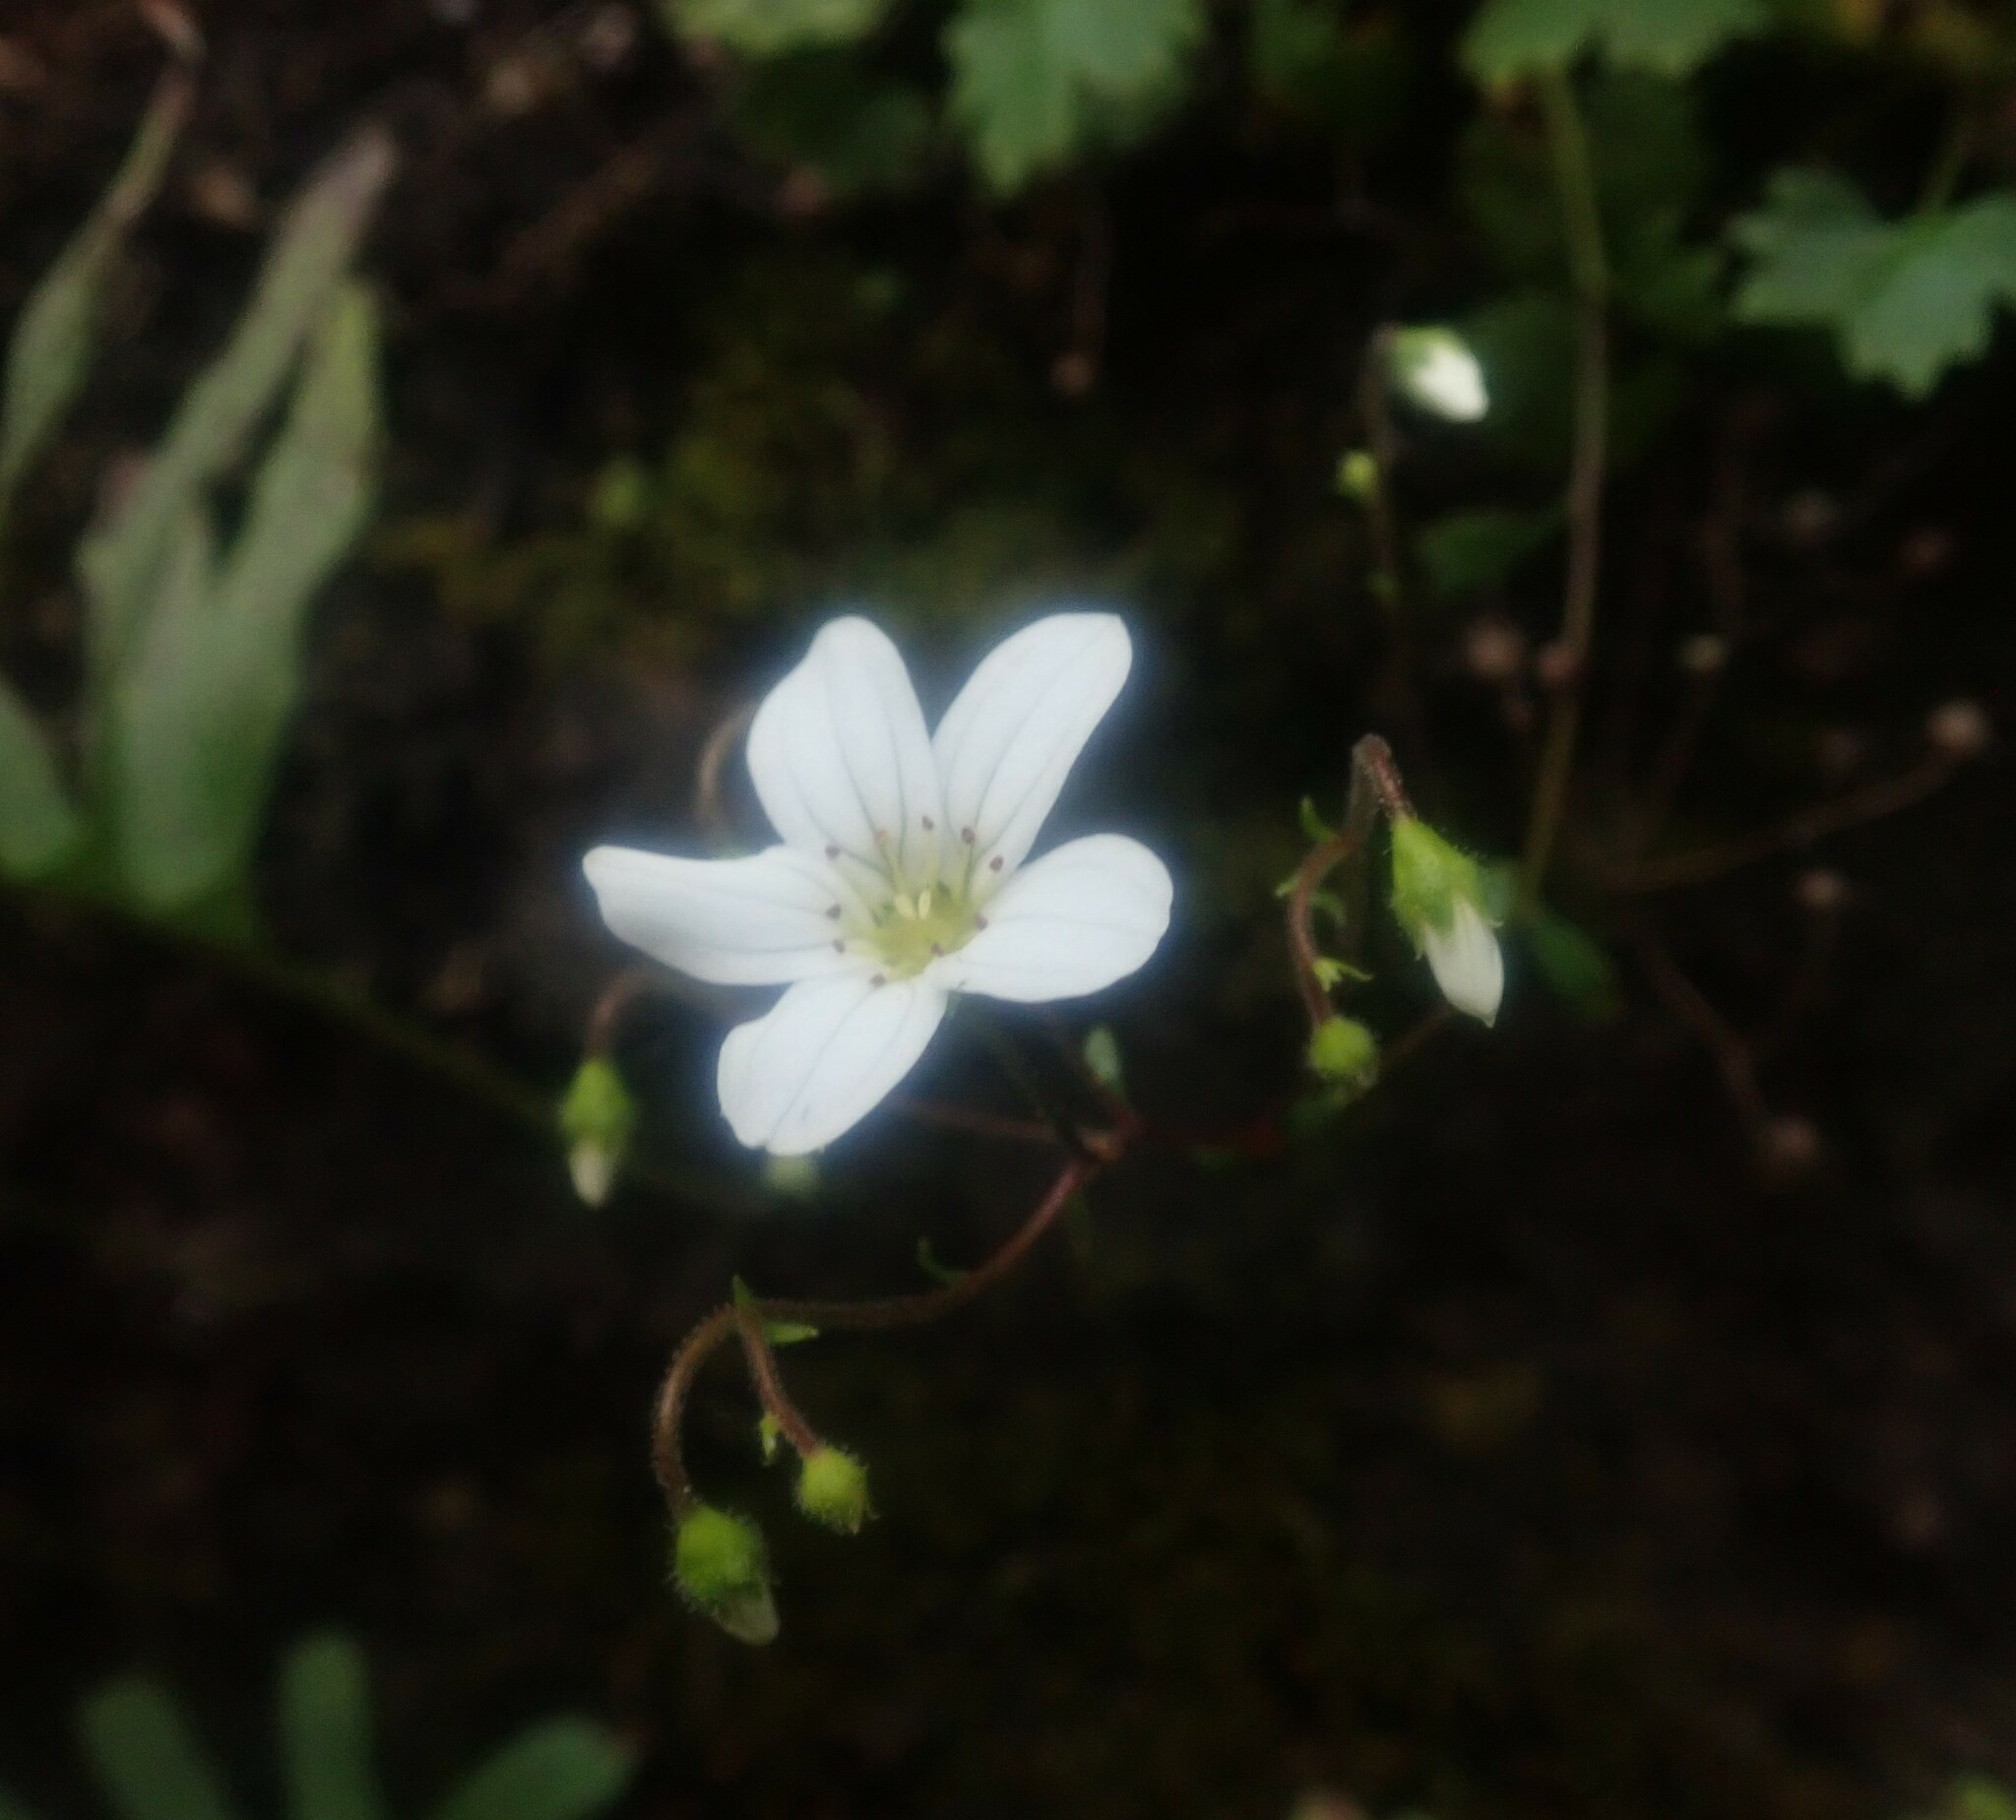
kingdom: Plantae
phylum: Tracheophyta
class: Magnoliopsida
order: Saxifragales
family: Saxifragaceae
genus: Saxifraga
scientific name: Saxifraga maderensis
